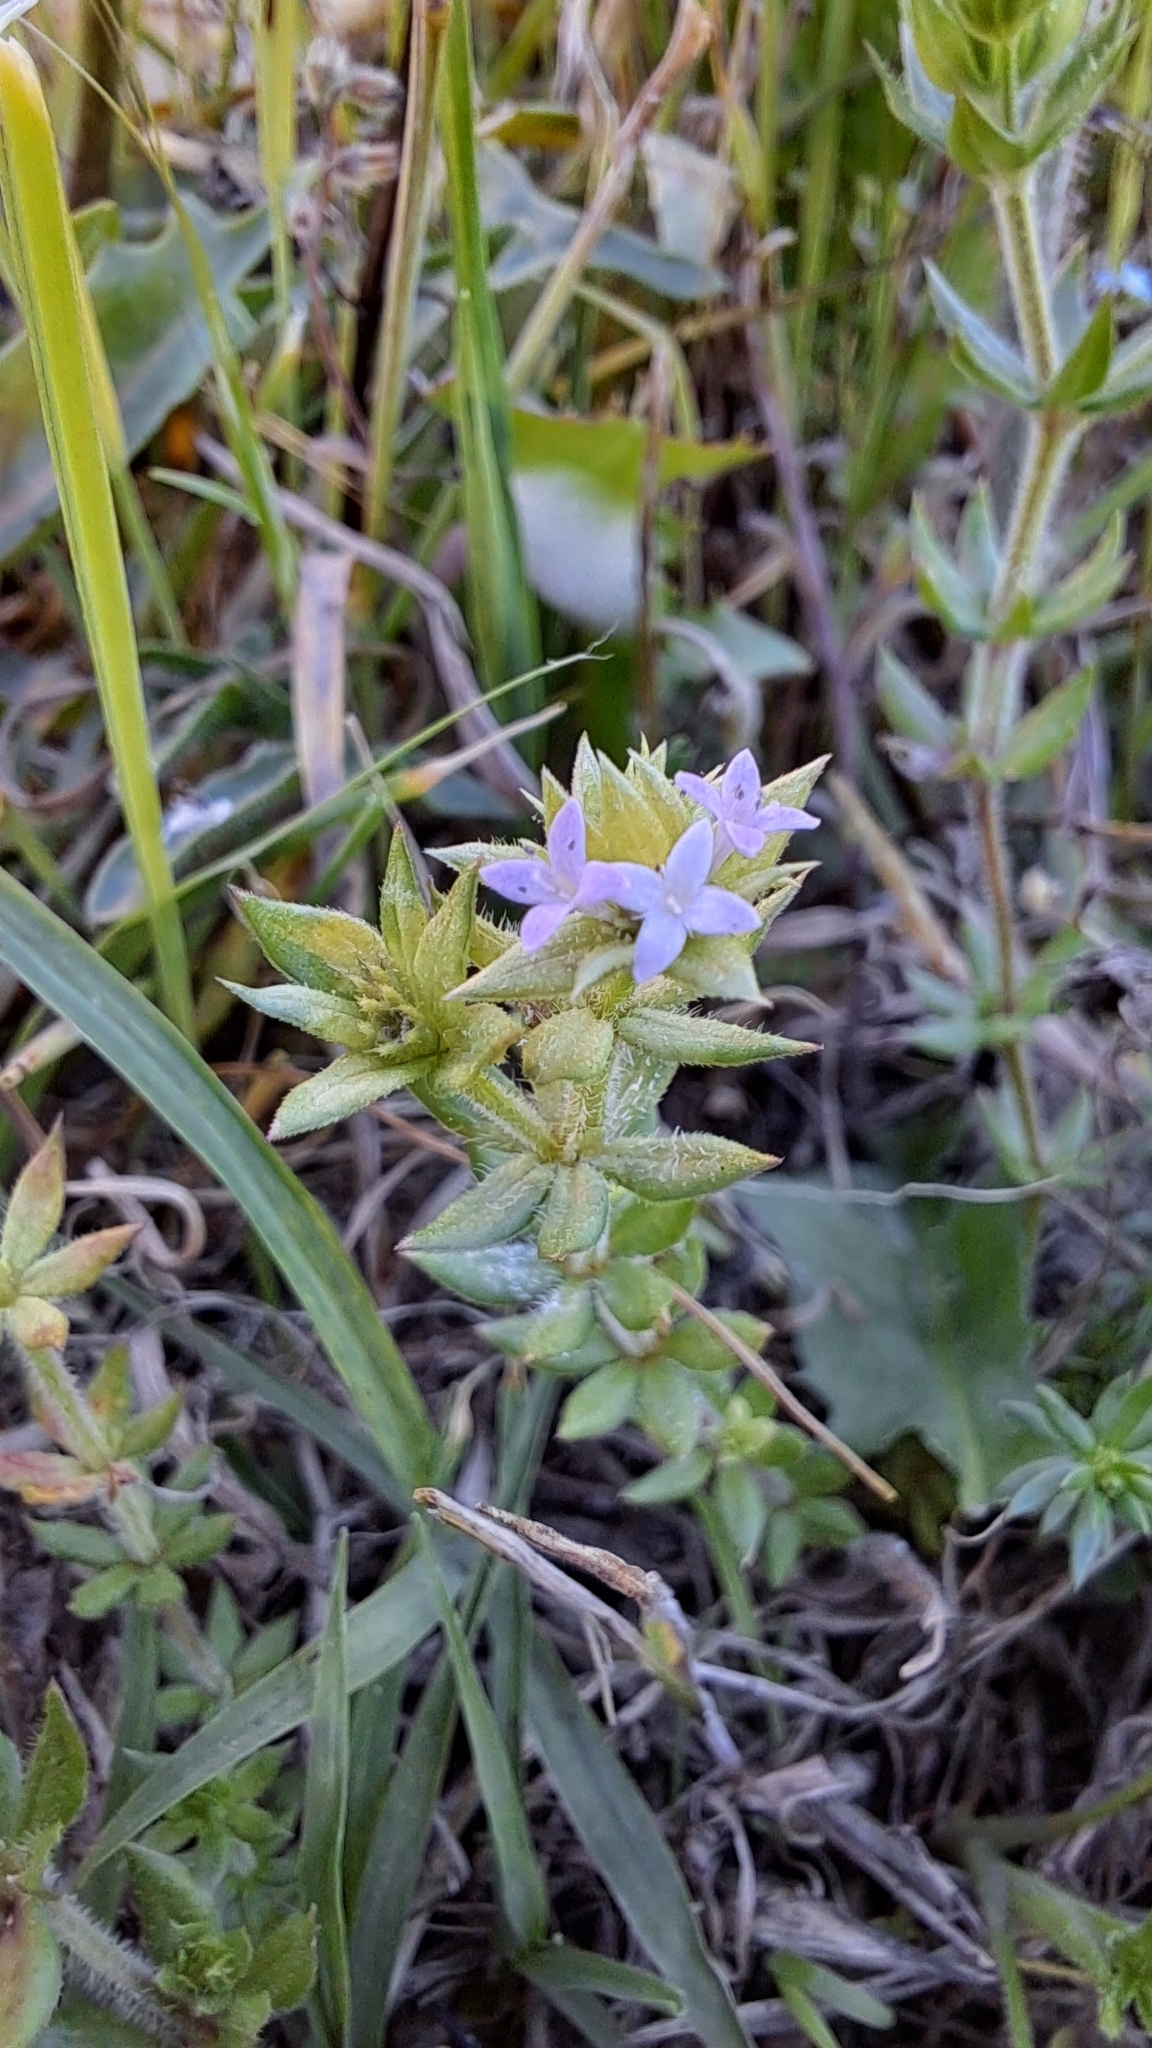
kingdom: Plantae
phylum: Tracheophyta
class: Magnoliopsida
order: Gentianales
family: Rubiaceae
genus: Sherardia
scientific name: Sherardia arvensis
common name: Field madder
